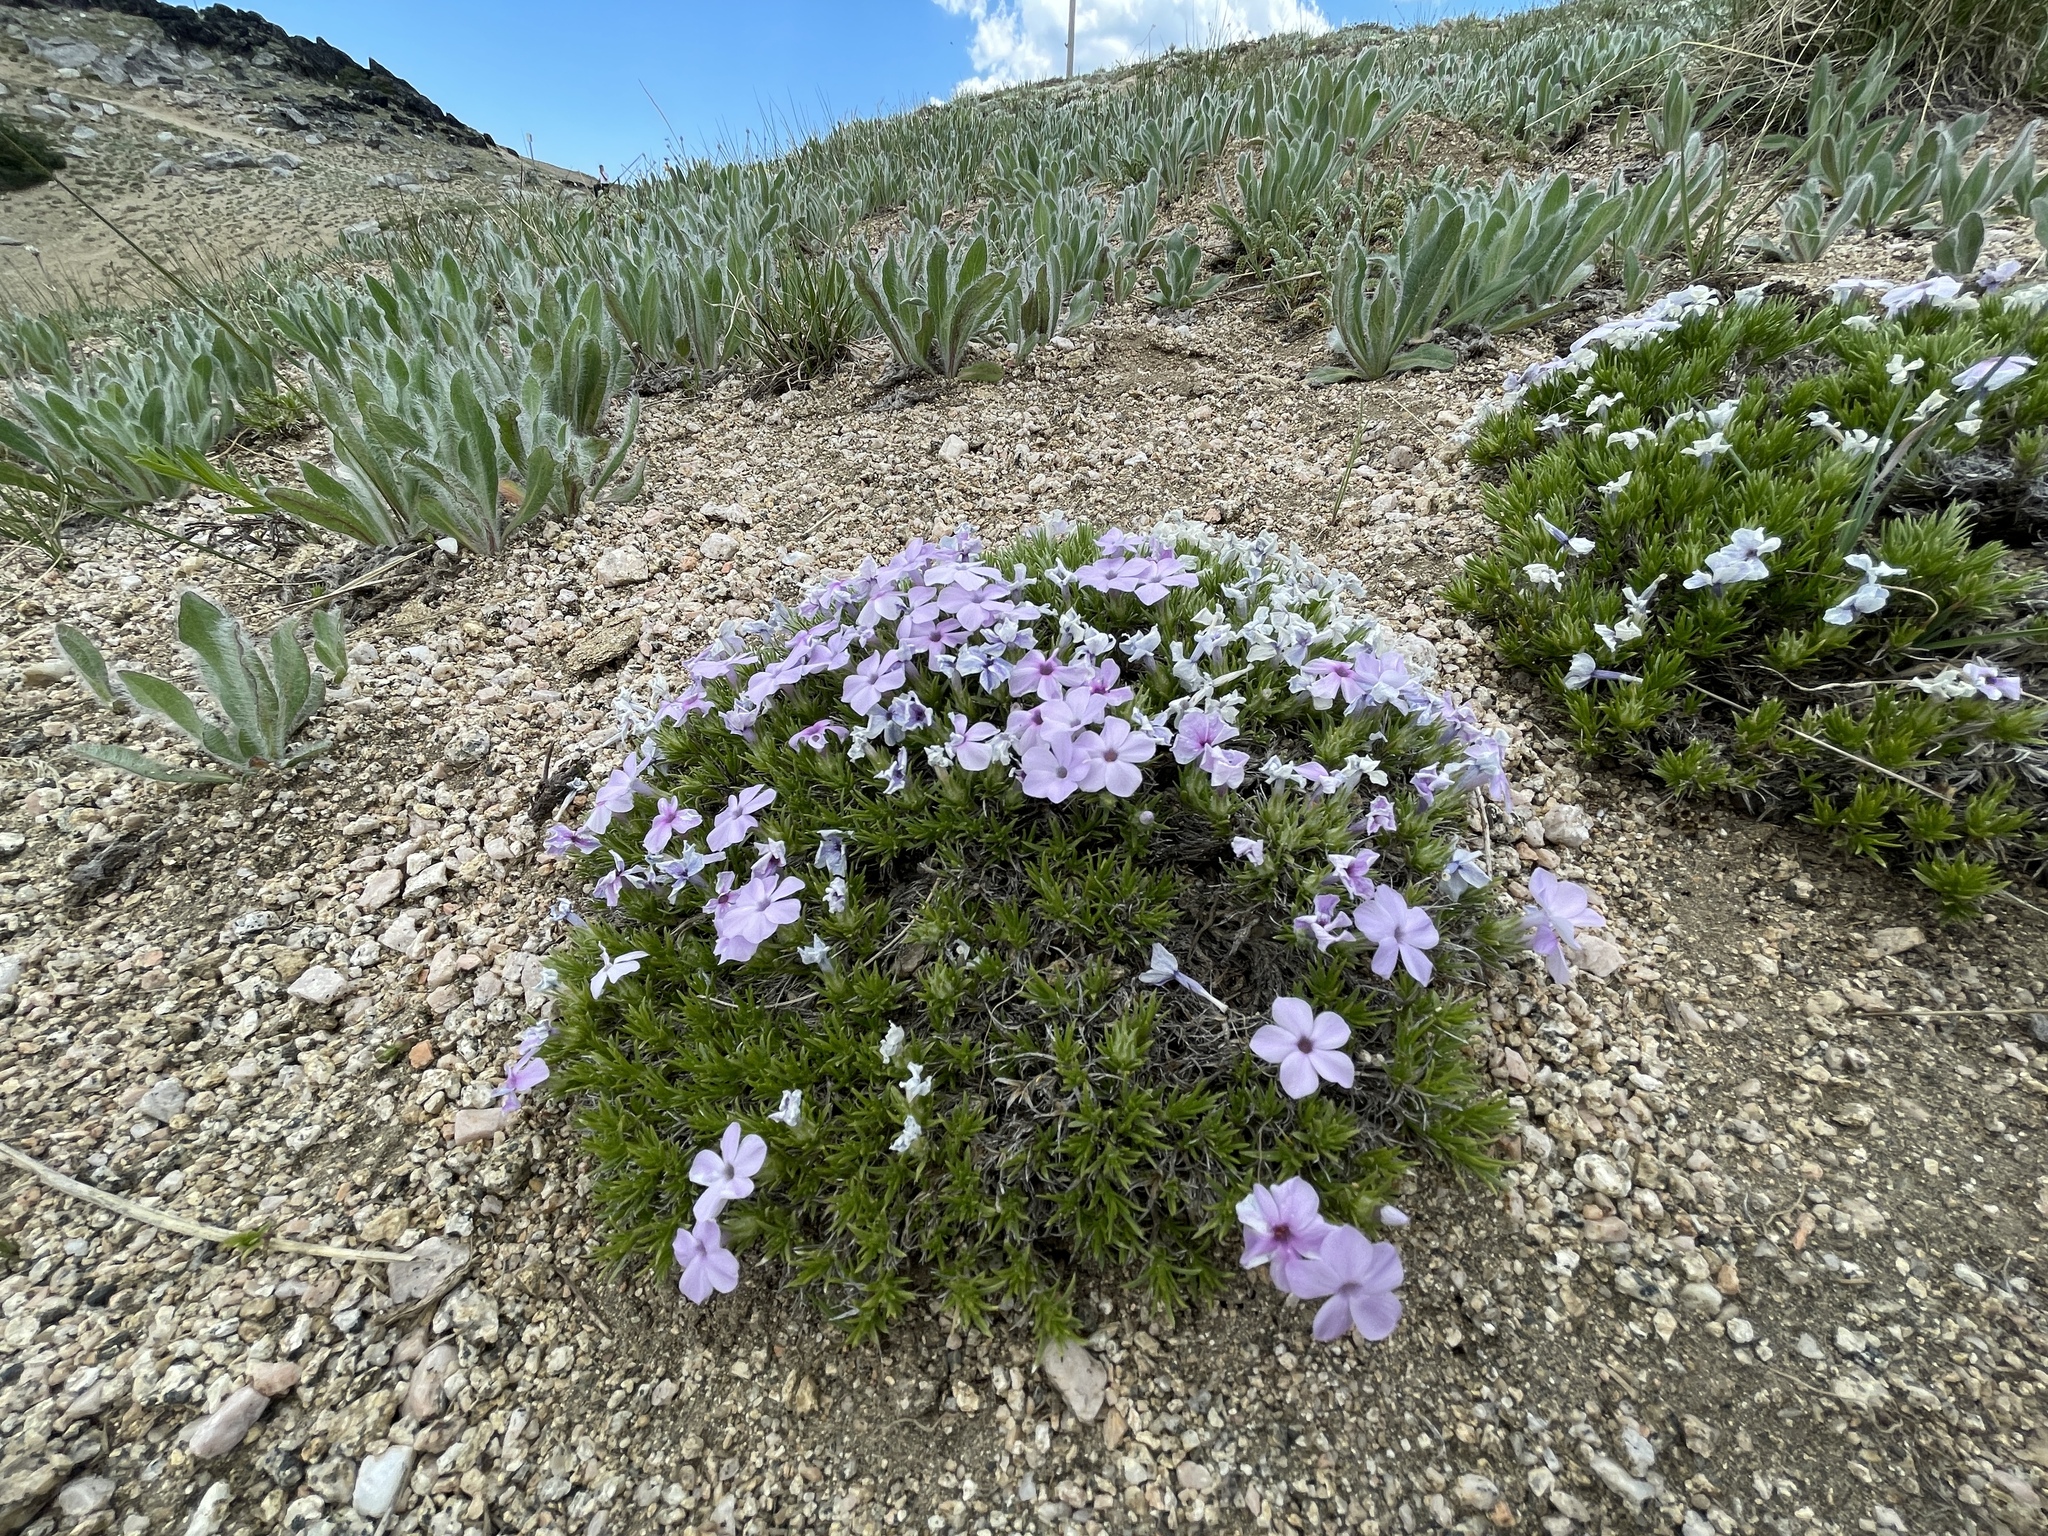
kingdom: Plantae
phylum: Tracheophyta
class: Magnoliopsida
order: Ericales
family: Polemoniaceae
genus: Phlox
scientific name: Phlox diffusa
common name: Mat phlox
